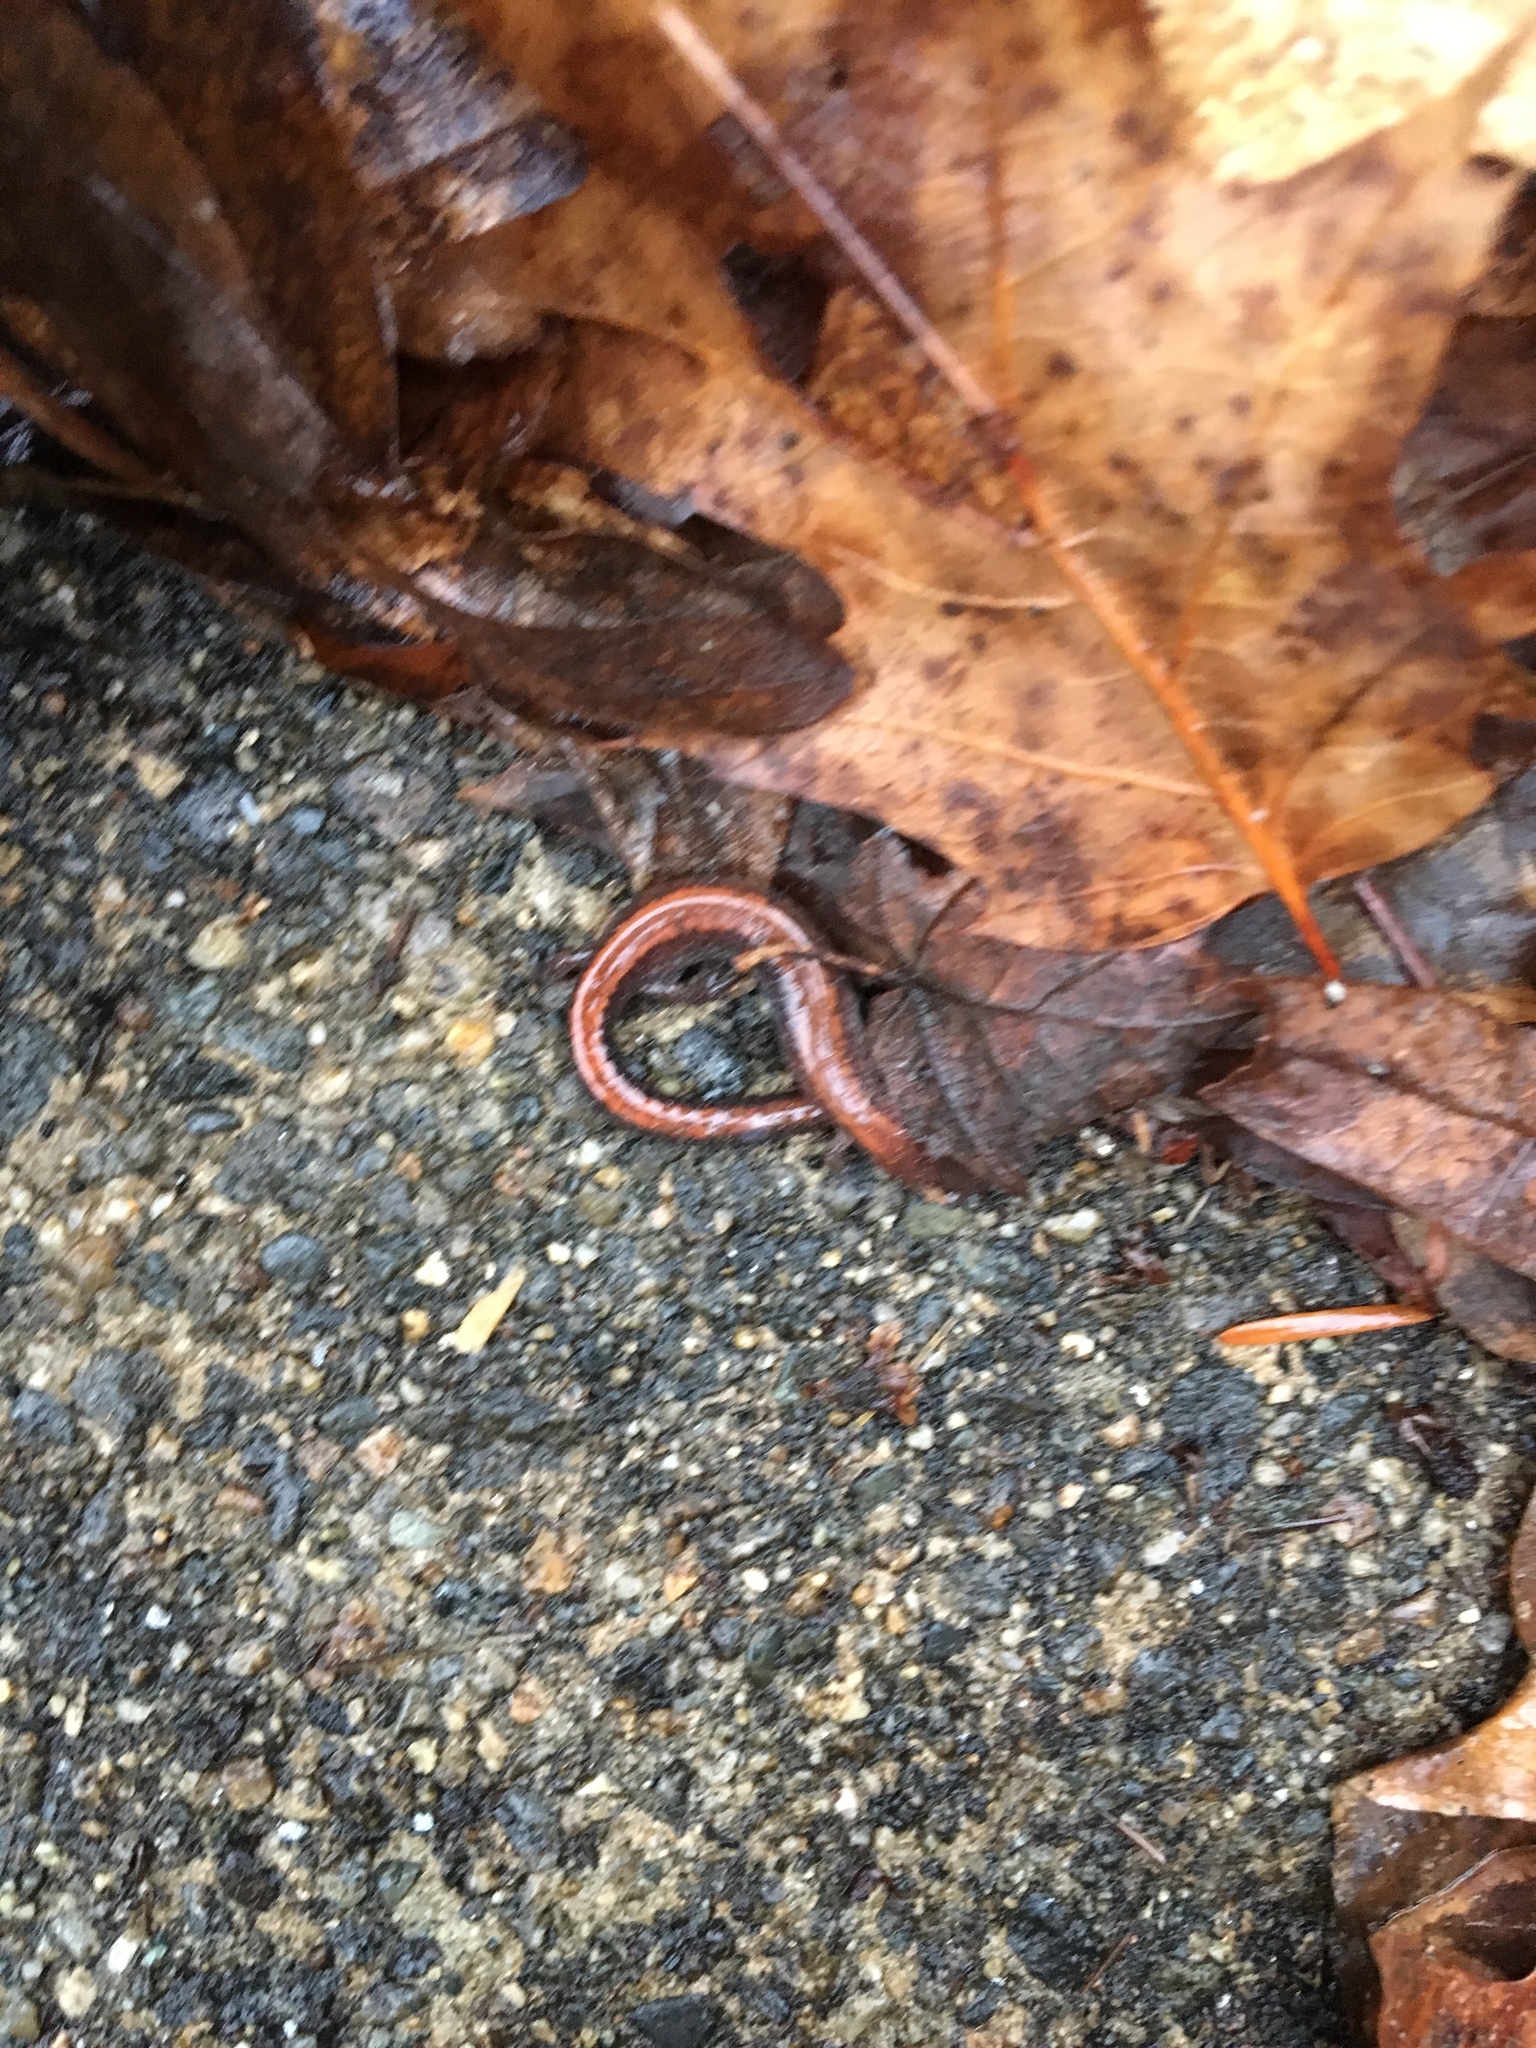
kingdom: Animalia
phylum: Chordata
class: Amphibia
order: Caudata
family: Plethodontidae
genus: Plethodon
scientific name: Plethodon cinereus
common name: Redback salamander
